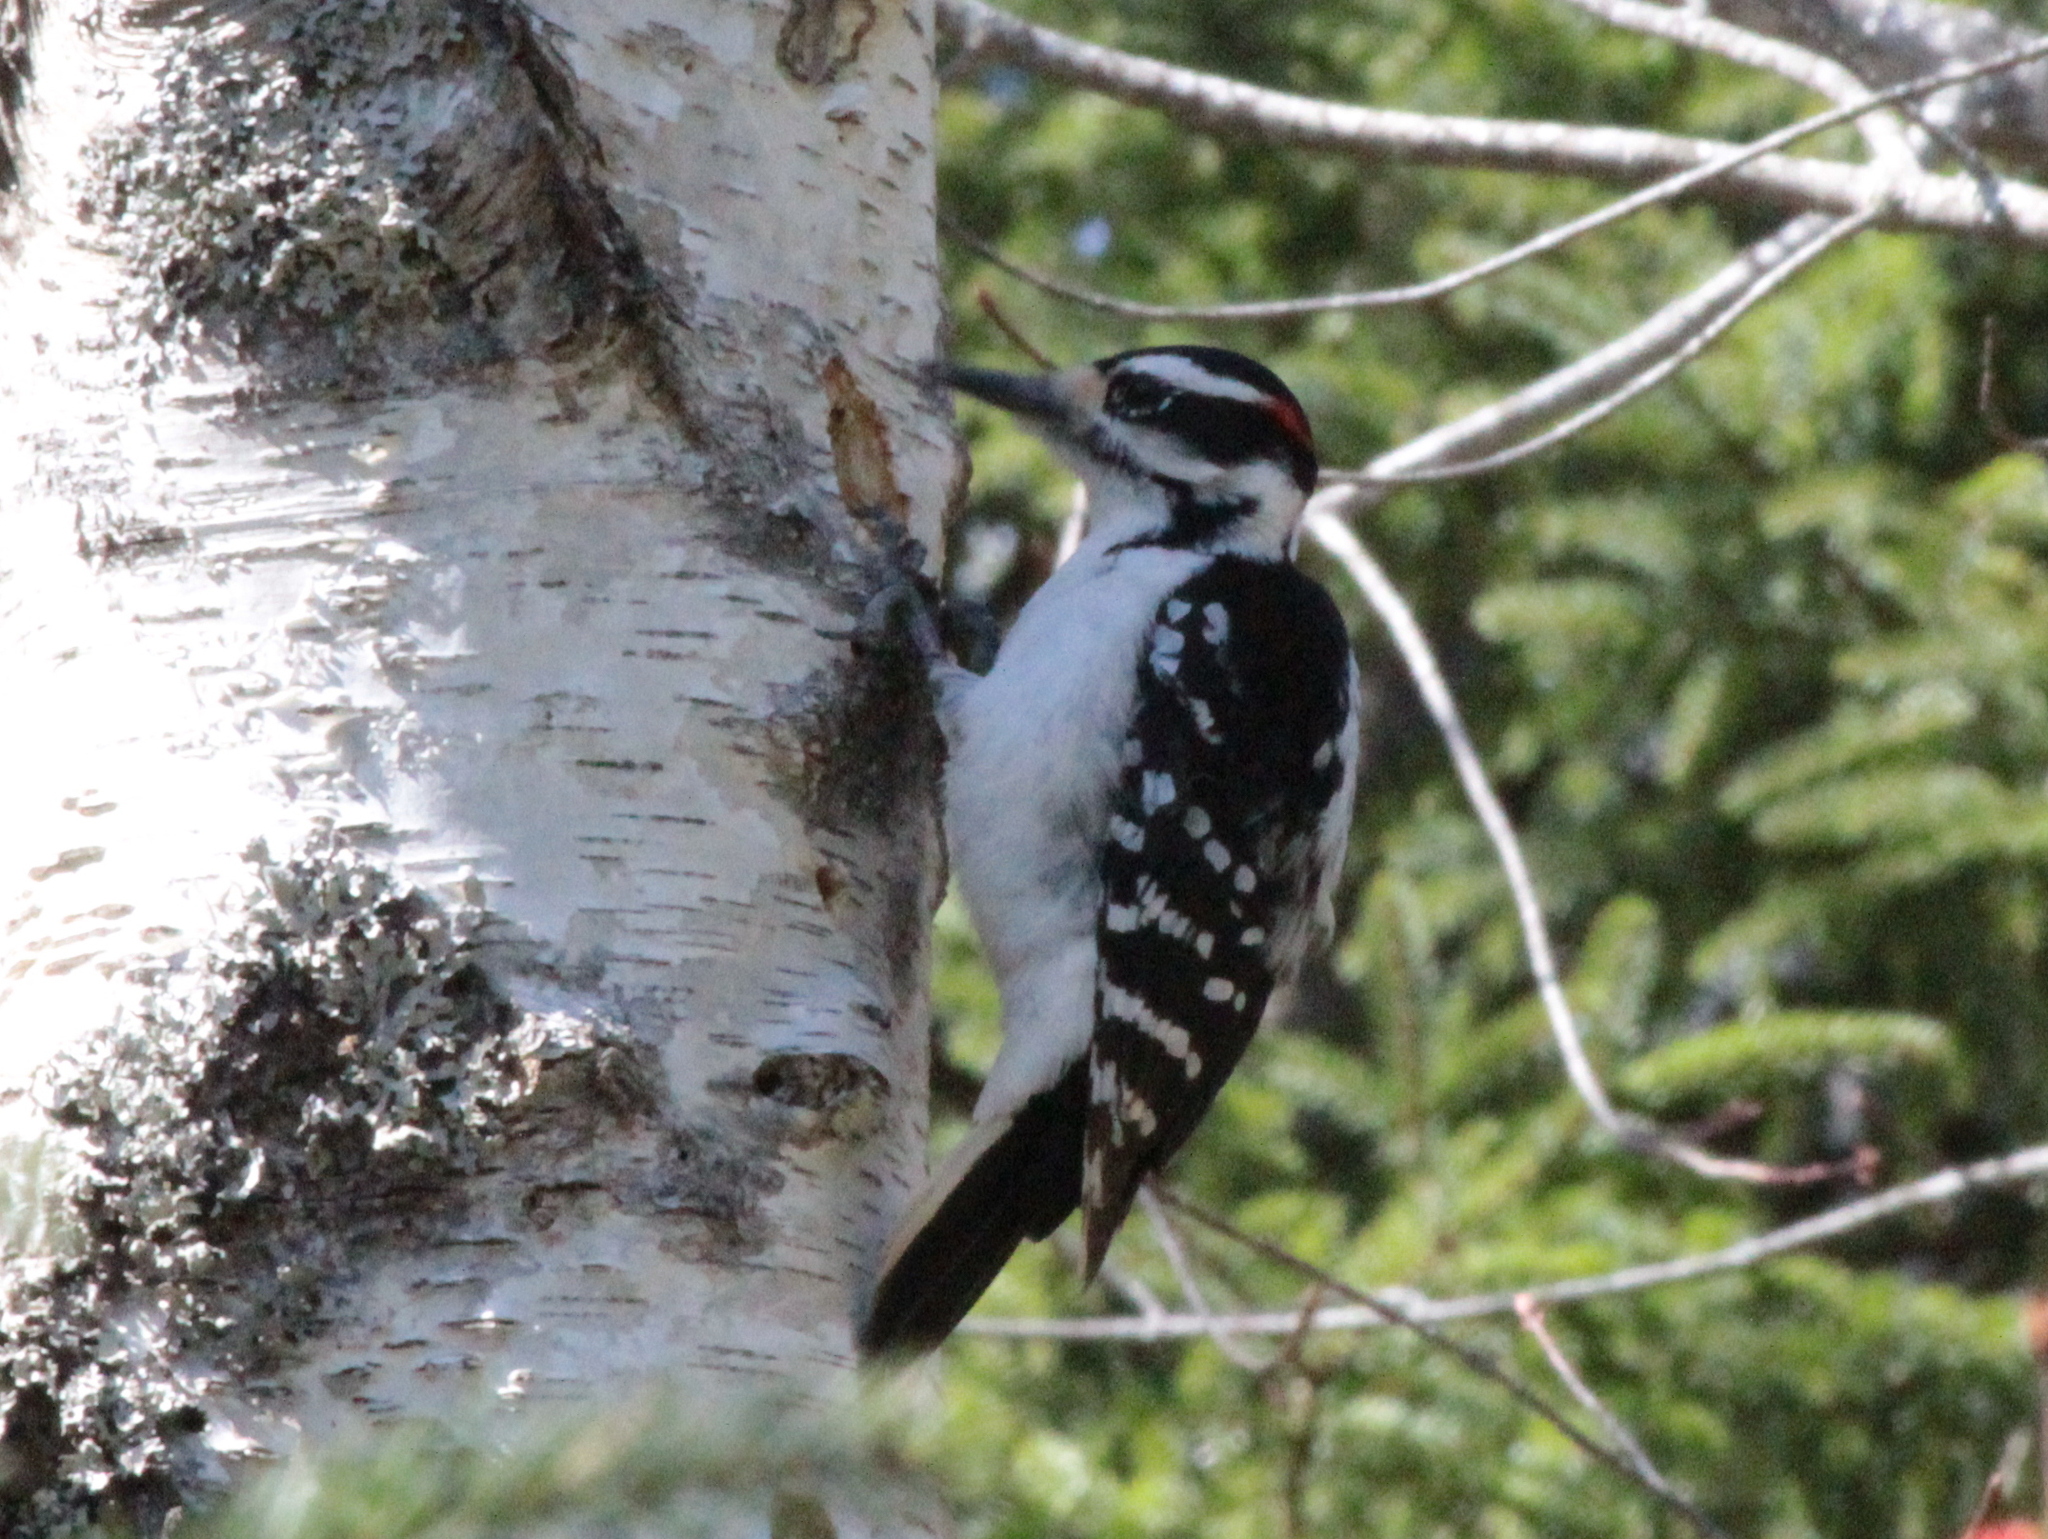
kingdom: Animalia
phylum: Chordata
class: Aves
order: Piciformes
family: Picidae
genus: Leuconotopicus
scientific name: Leuconotopicus villosus
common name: Hairy woodpecker
